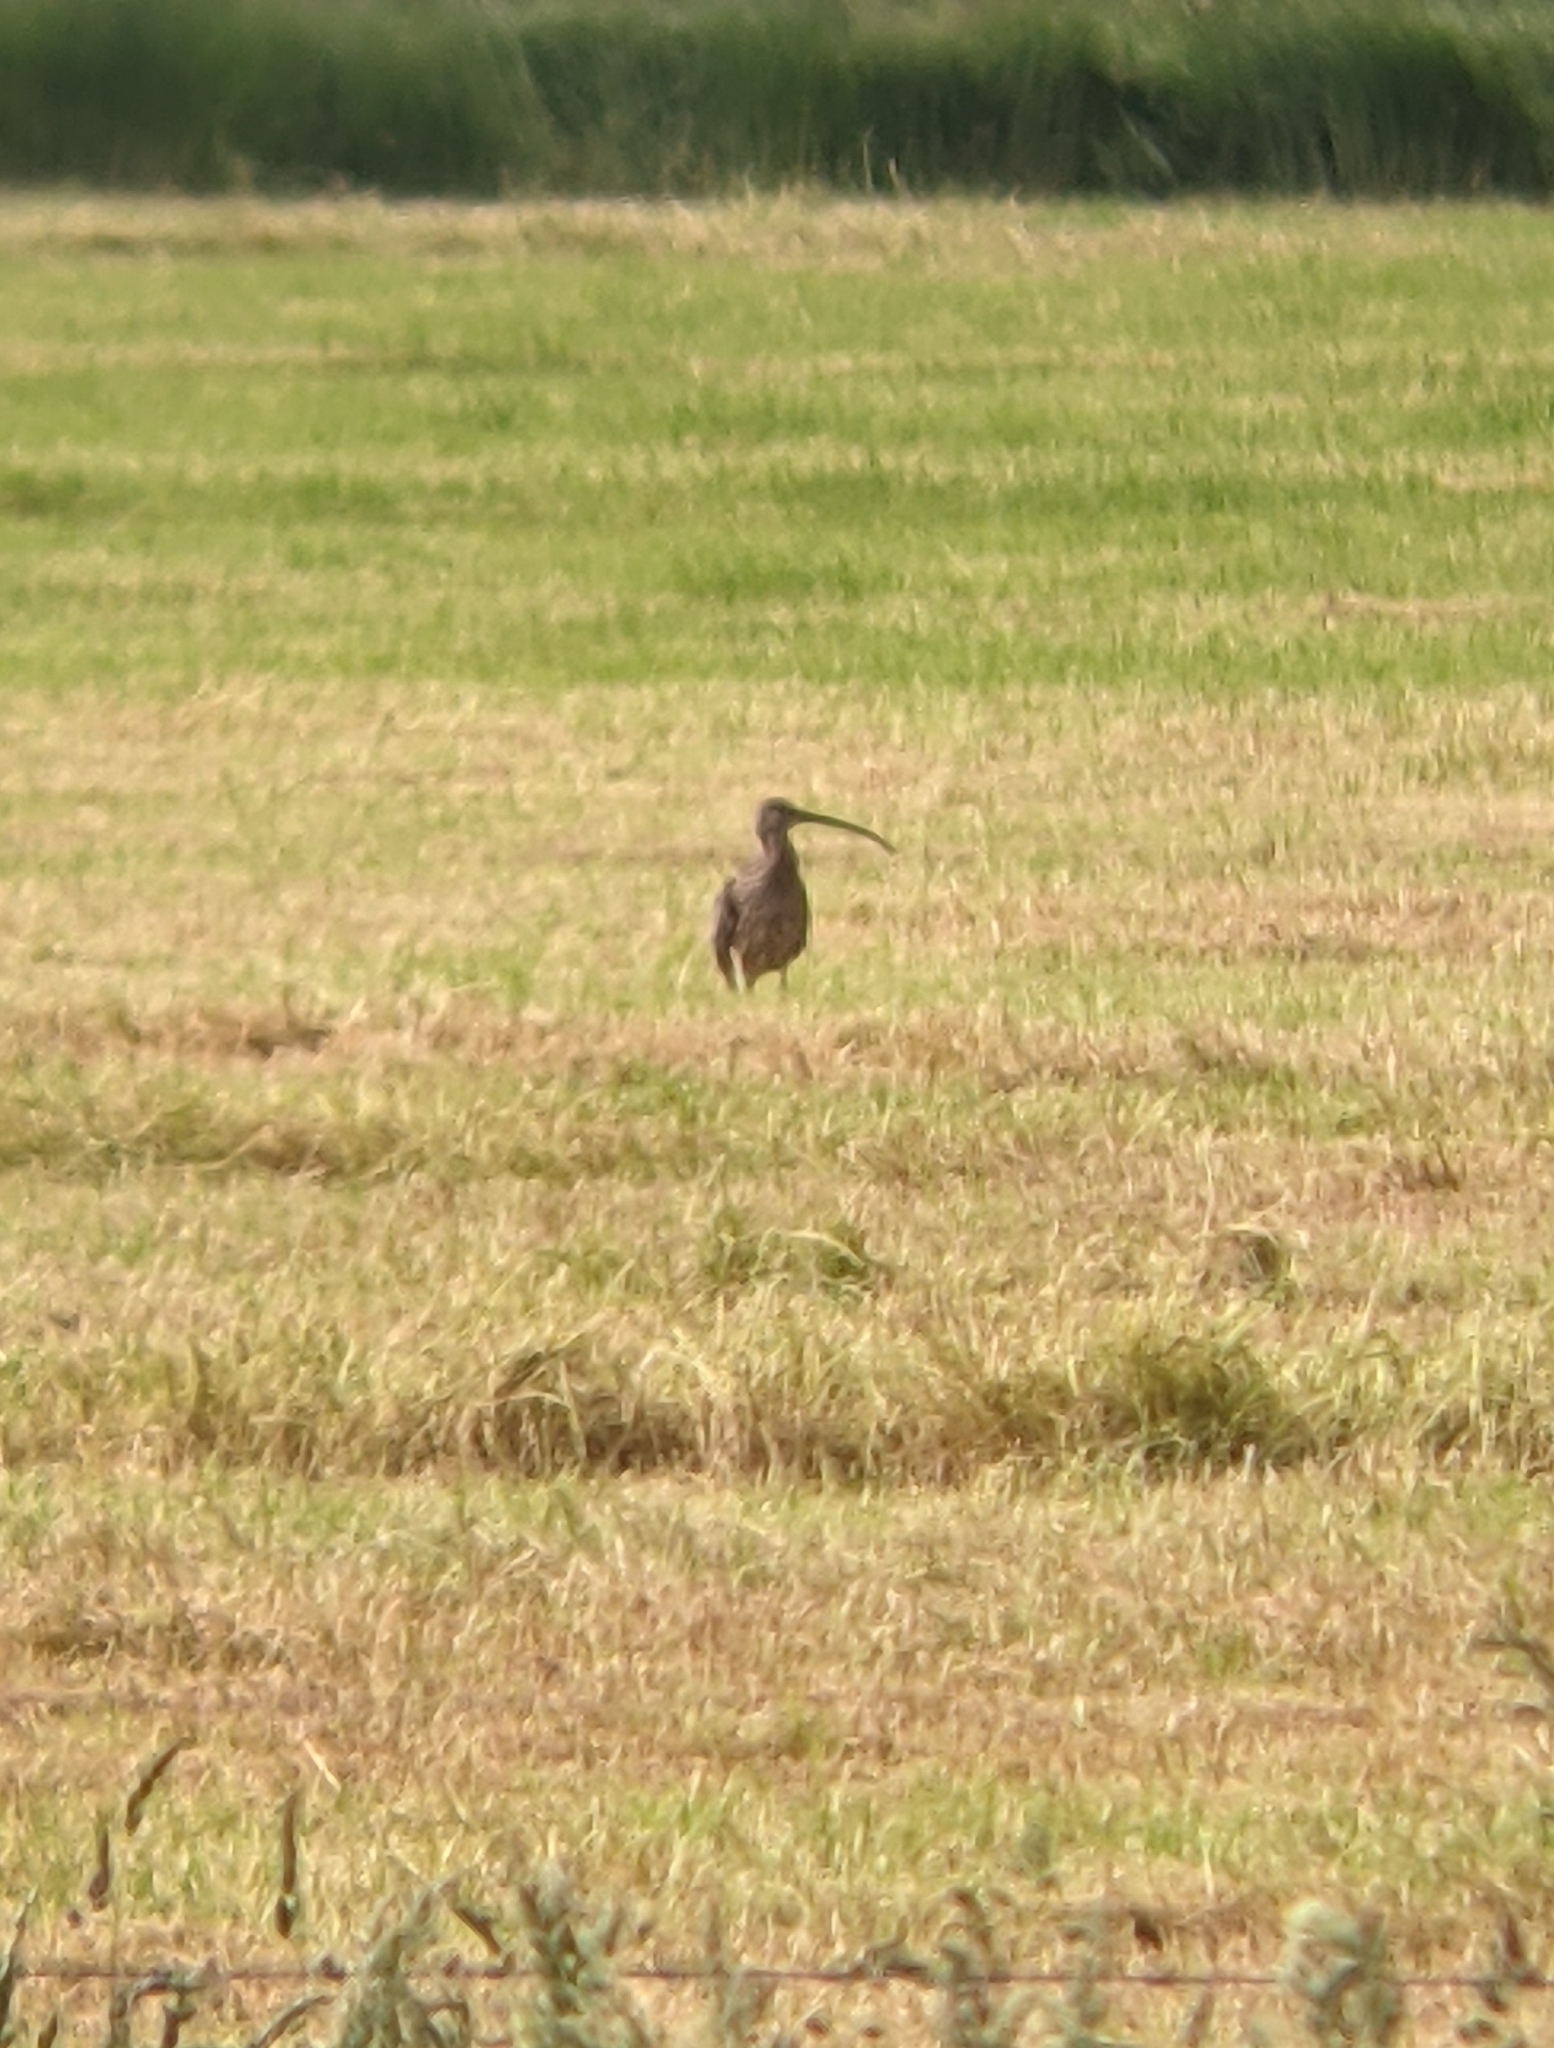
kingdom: Animalia
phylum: Chordata
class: Aves
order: Charadriiformes
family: Scolopacidae
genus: Numenius
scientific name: Numenius arquata
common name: Eurasian curlew
